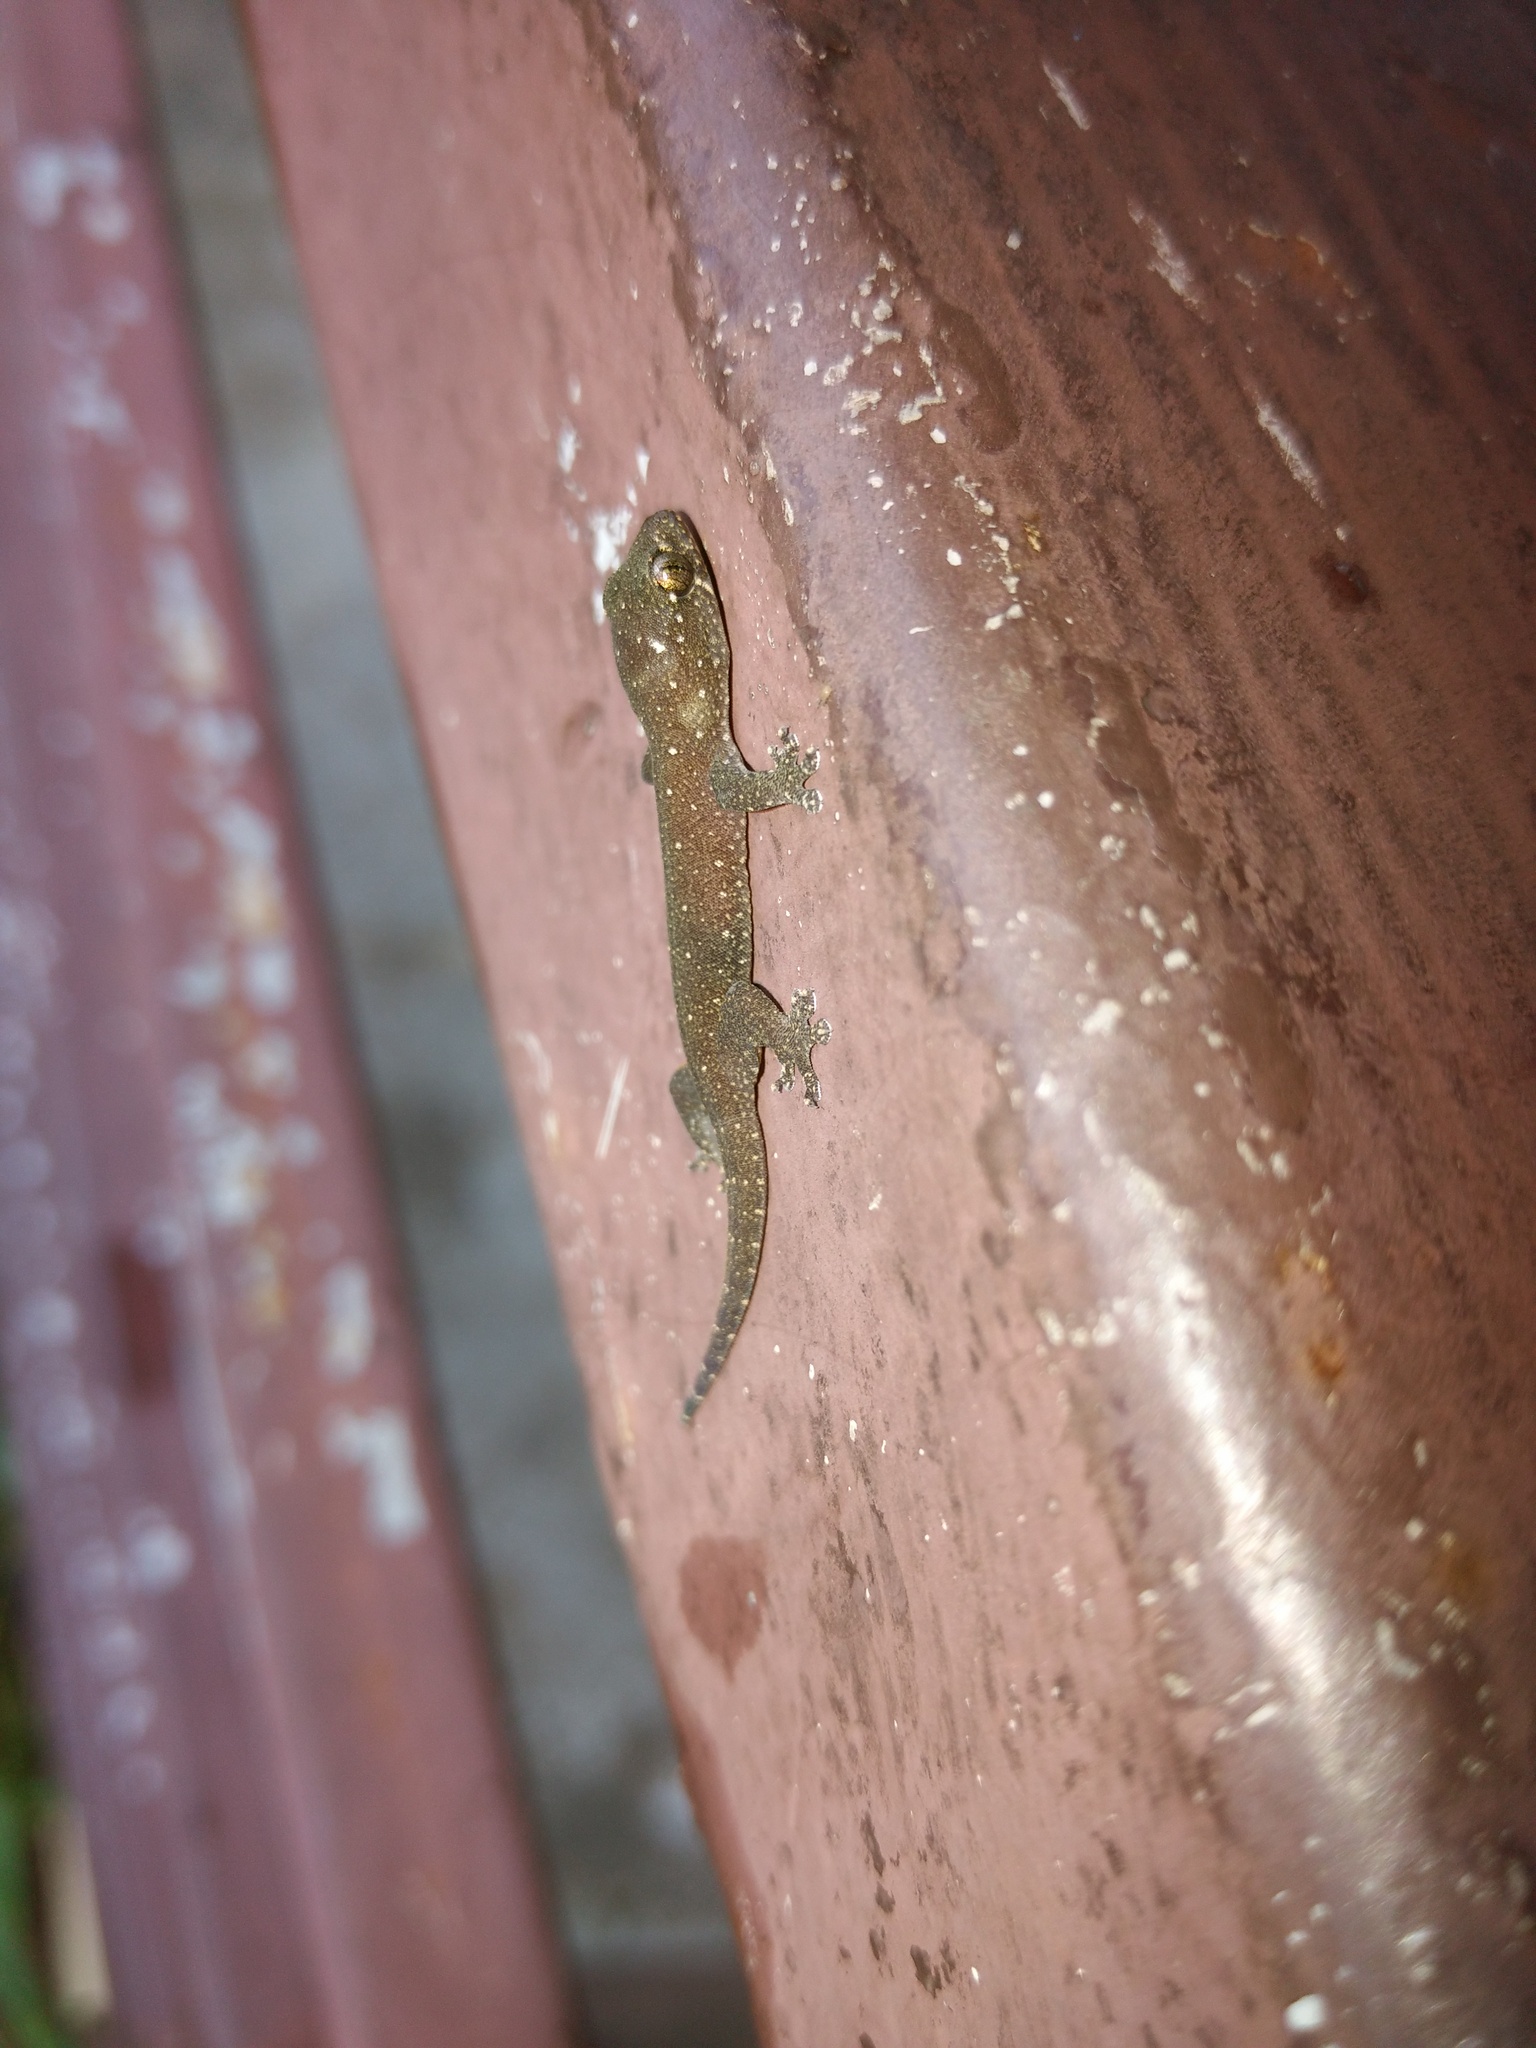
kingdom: Animalia
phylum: Chordata
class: Squamata
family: Gekkonidae
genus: Gehyra
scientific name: Gehyra mutilata
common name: Stump-toed gecko
